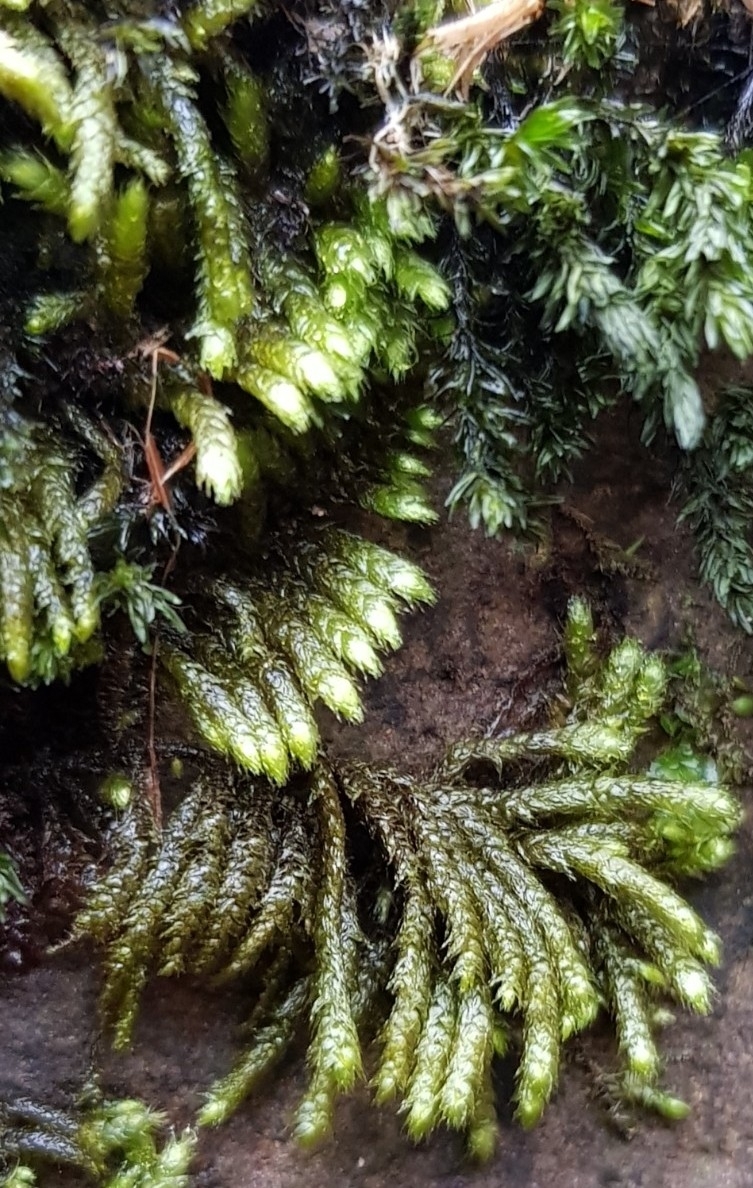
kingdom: Plantae
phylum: Bryophyta
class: Bryopsida
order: Hypnales
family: Myuriaceae
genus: Hyocomium
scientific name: Hyocomium armoricum
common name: Flagellate feather-moss
